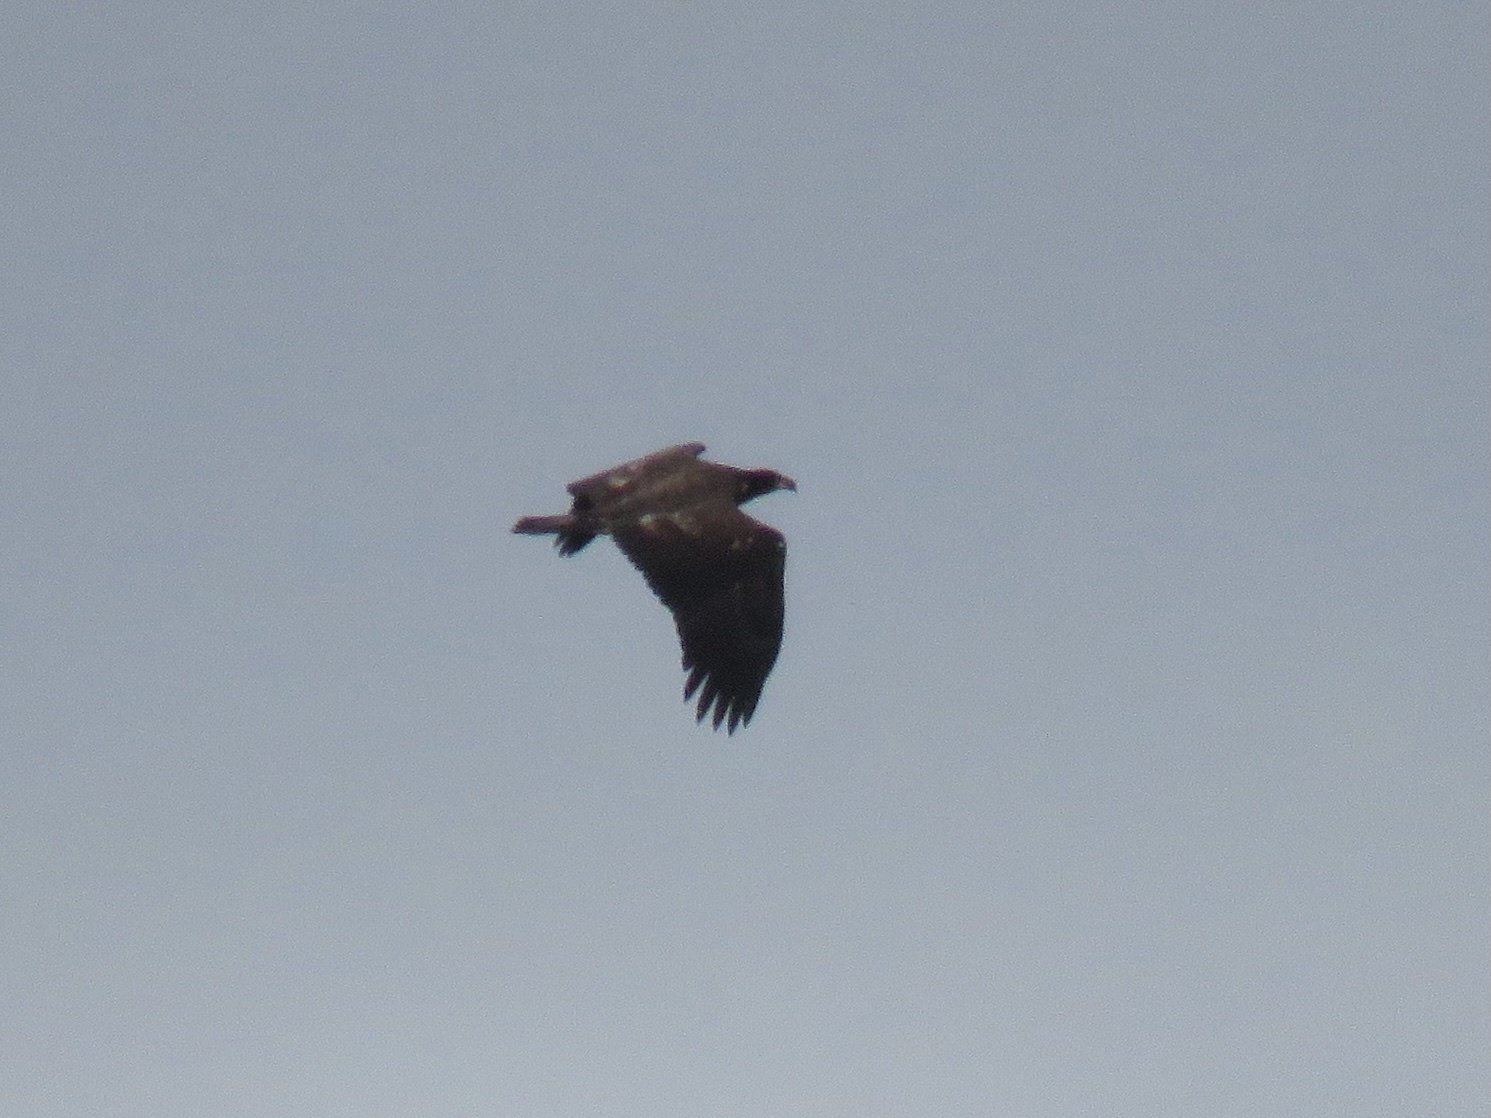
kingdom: Animalia
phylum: Chordata
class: Aves
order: Accipitriformes
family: Accipitridae
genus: Haliaeetus
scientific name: Haliaeetus leucocephalus
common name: Bald eagle
